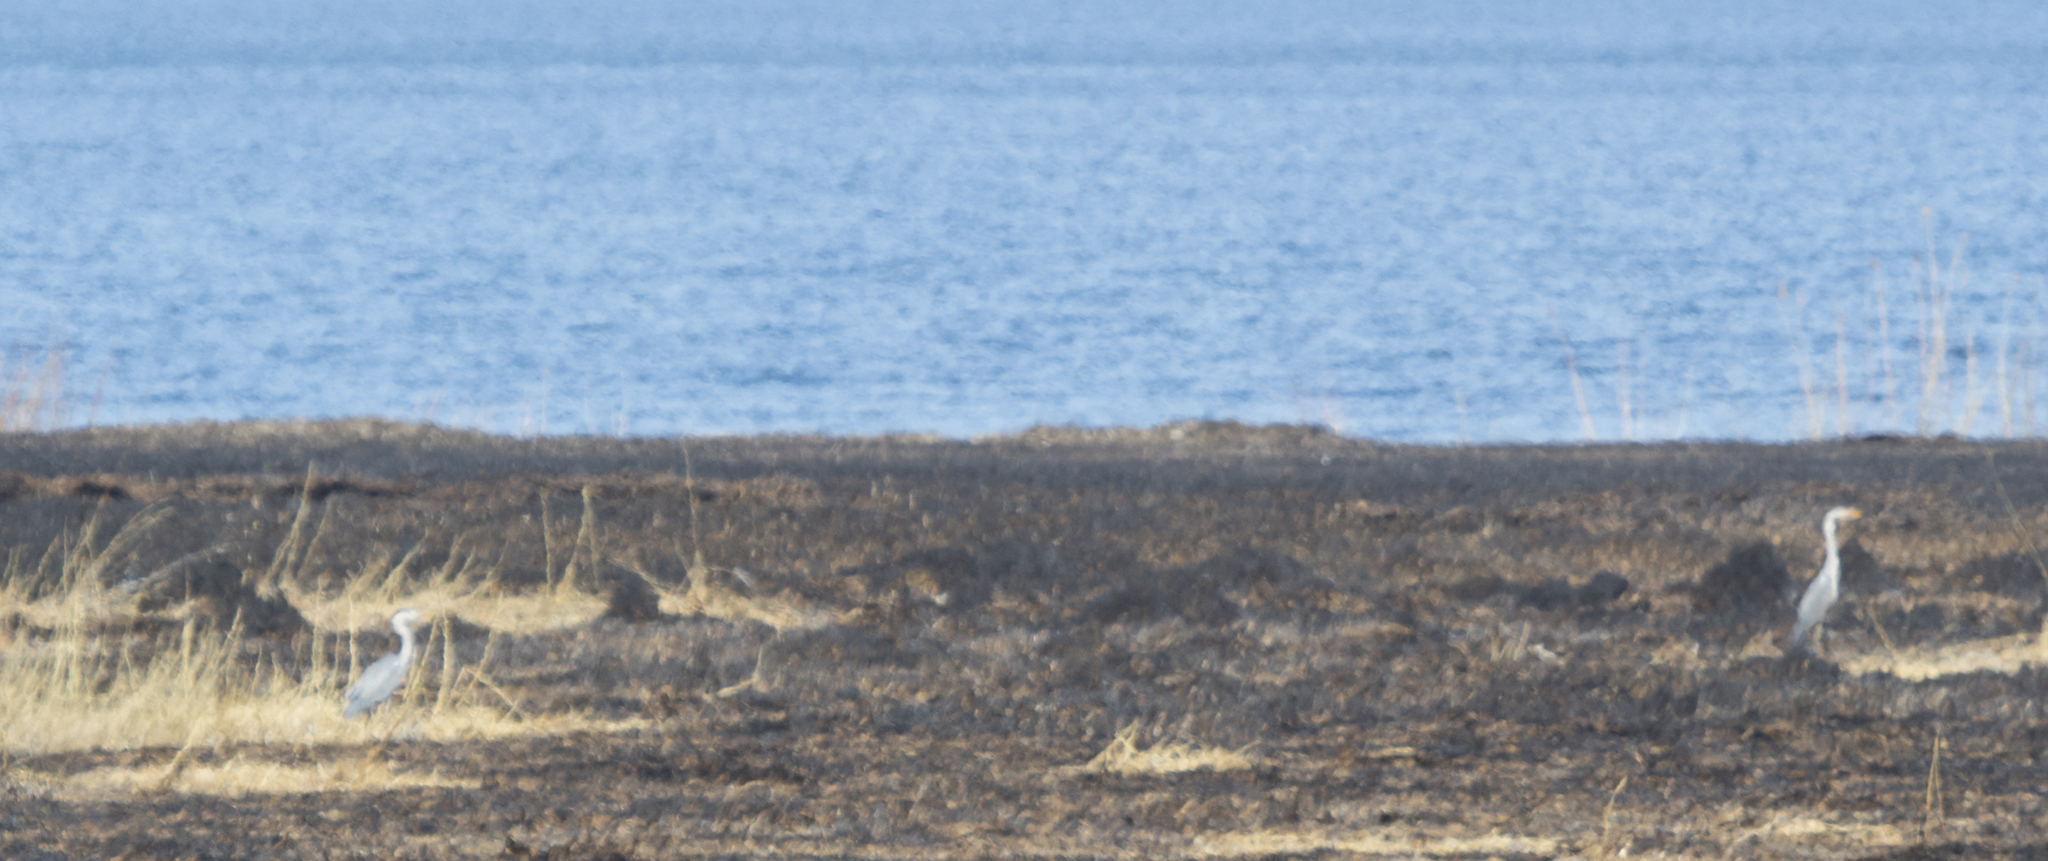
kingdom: Animalia
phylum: Chordata
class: Aves
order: Pelecaniformes
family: Ardeidae
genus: Ardea
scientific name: Ardea cinerea
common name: Grey heron
